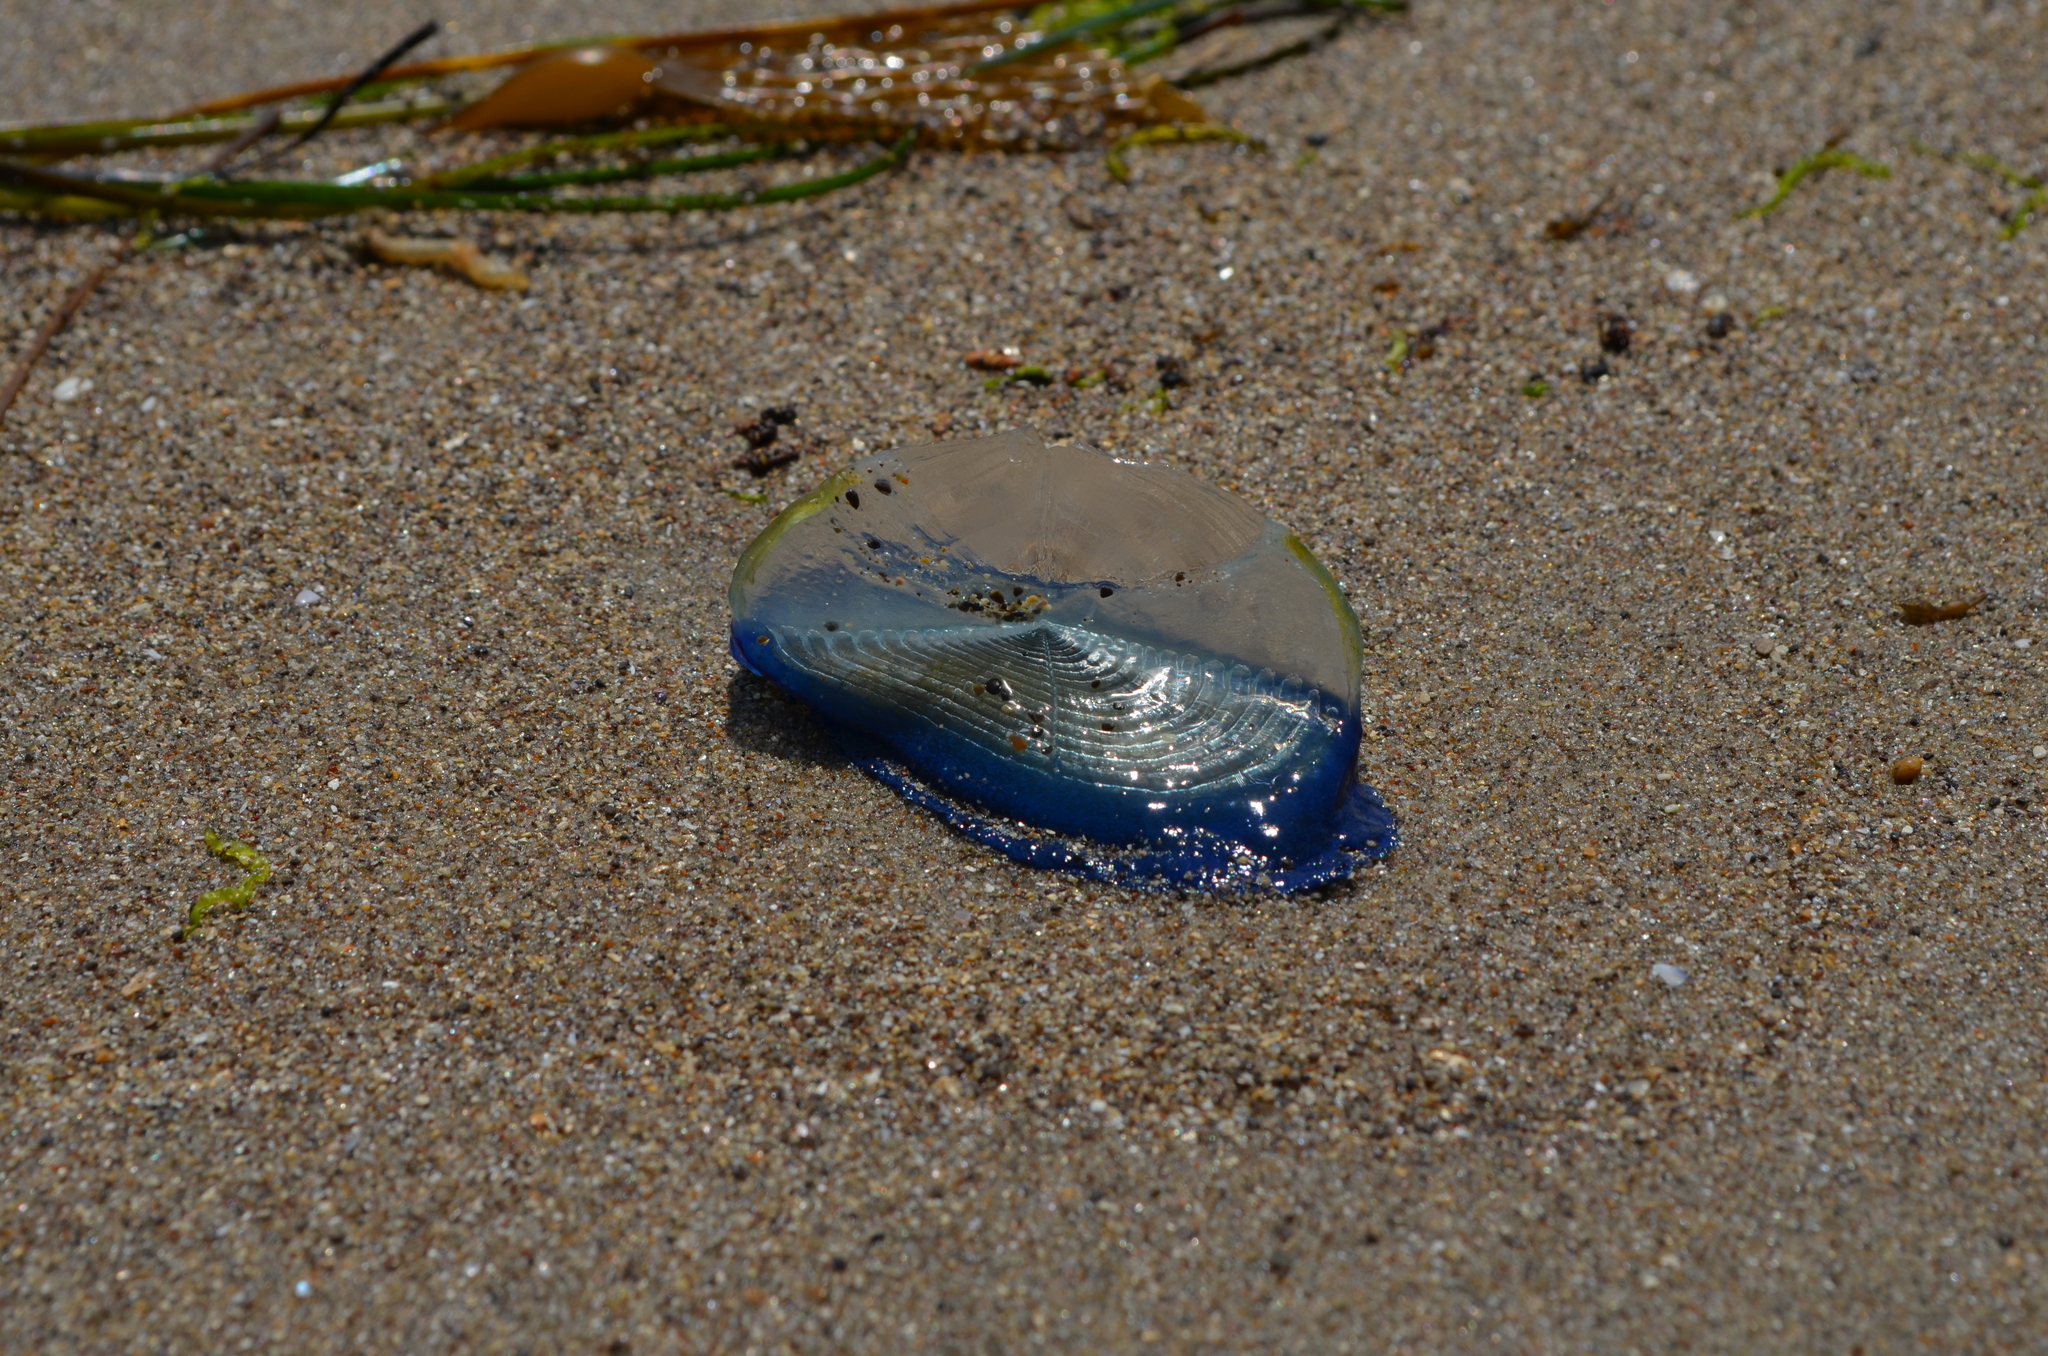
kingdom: Animalia
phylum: Cnidaria
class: Hydrozoa
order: Anthoathecata
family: Porpitidae
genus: Velella
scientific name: Velella velella
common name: By-the-wind-sailor
